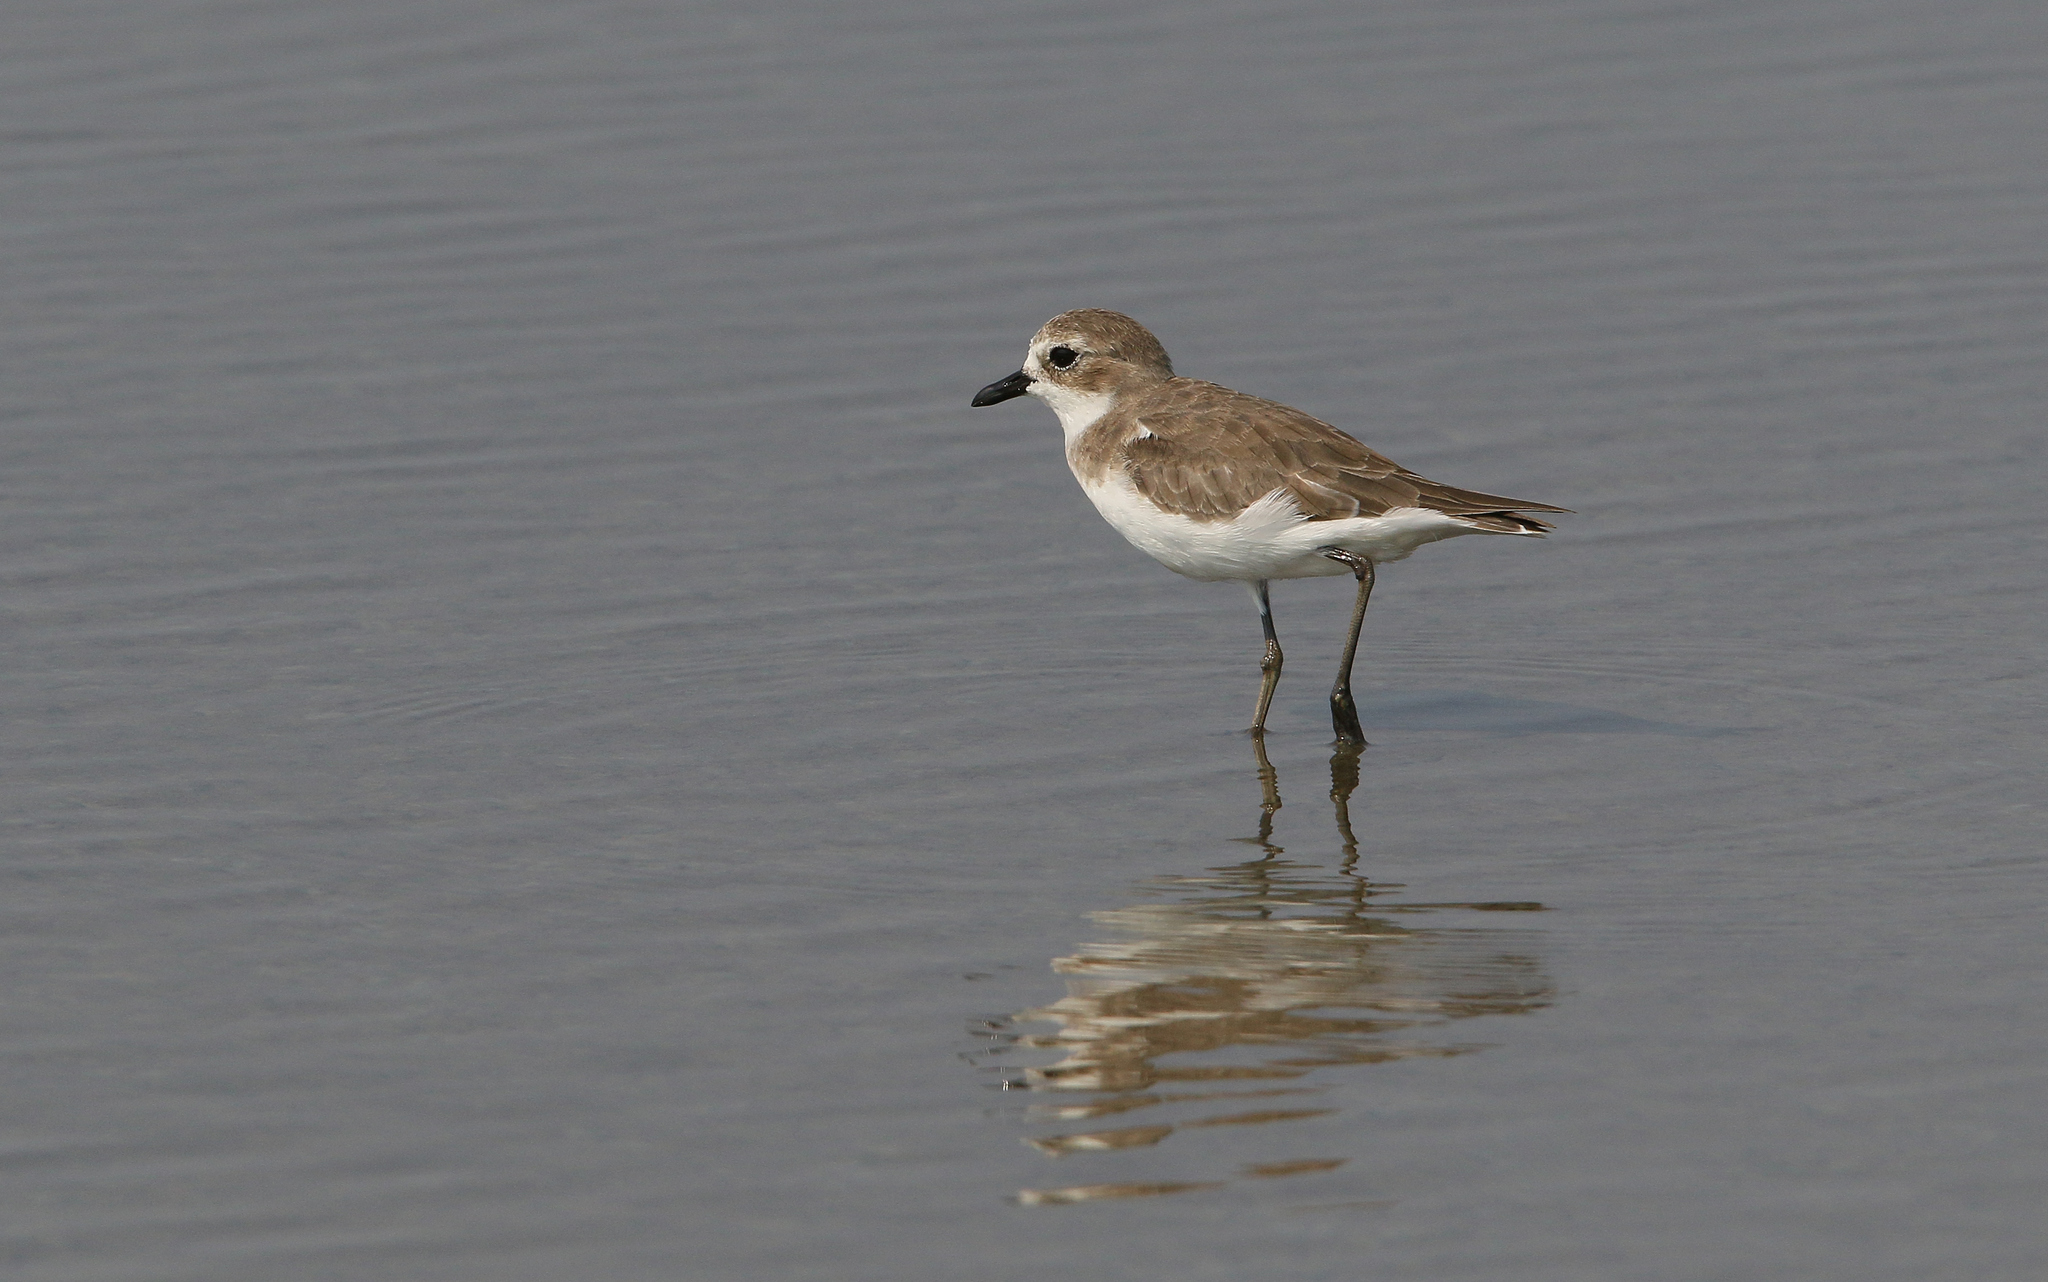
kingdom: Animalia
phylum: Chordata
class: Aves
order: Charadriiformes
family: Charadriidae
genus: Charadrius
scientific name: Charadrius leschenaultii
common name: Greater sand plover
